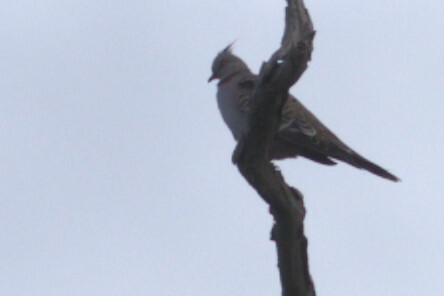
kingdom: Animalia
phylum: Chordata
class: Aves
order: Columbiformes
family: Columbidae
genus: Ocyphaps
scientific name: Ocyphaps lophotes
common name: Crested pigeon
